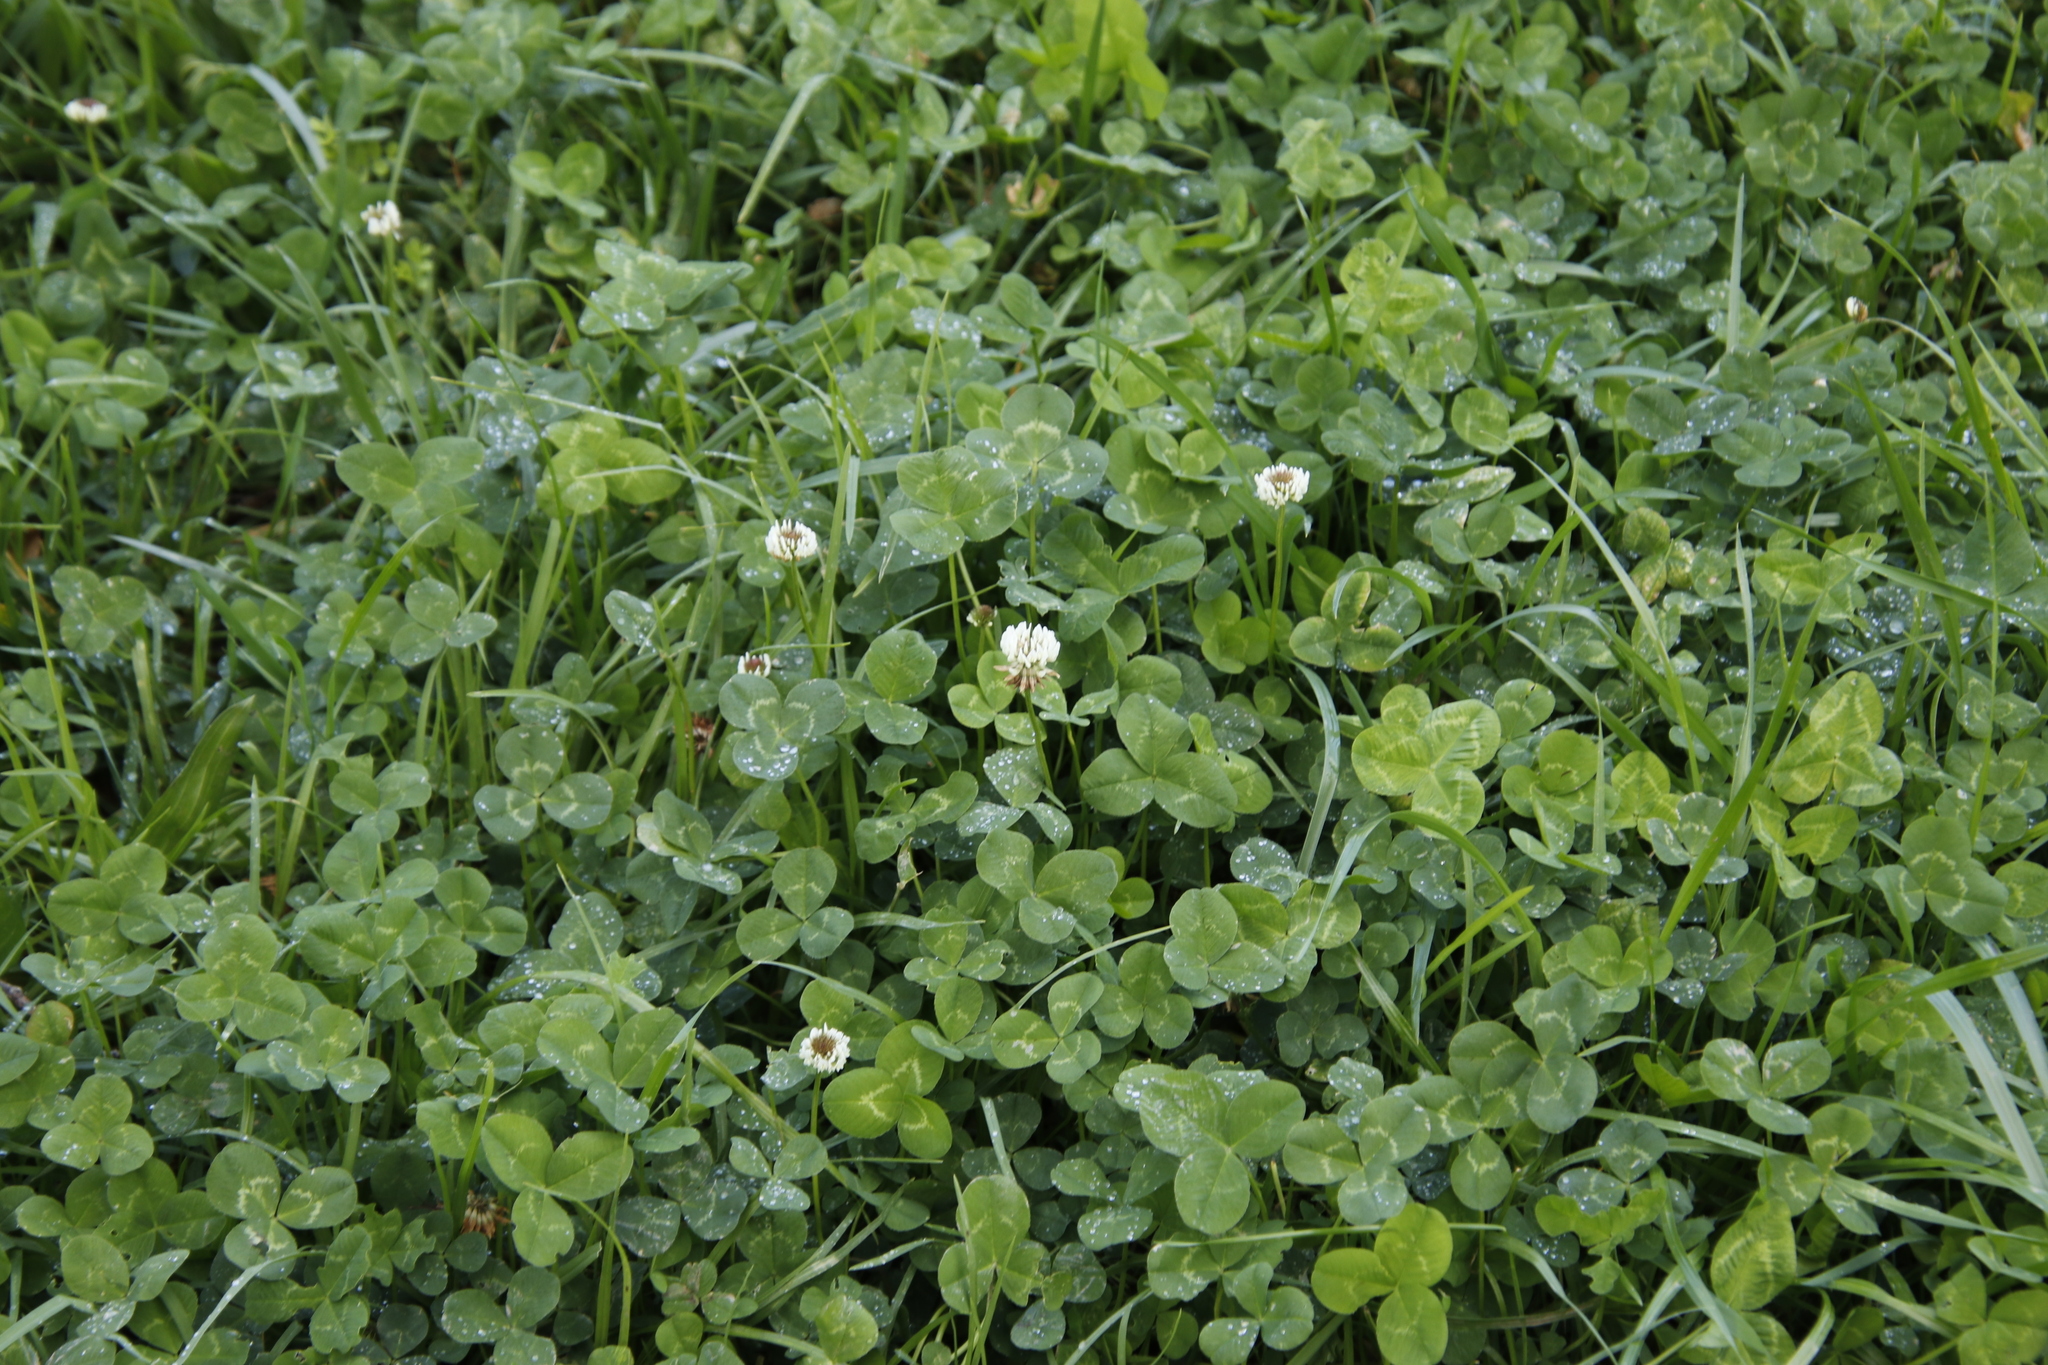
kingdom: Plantae
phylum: Tracheophyta
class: Magnoliopsida
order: Fabales
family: Fabaceae
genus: Trifolium
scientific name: Trifolium repens
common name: White clover
